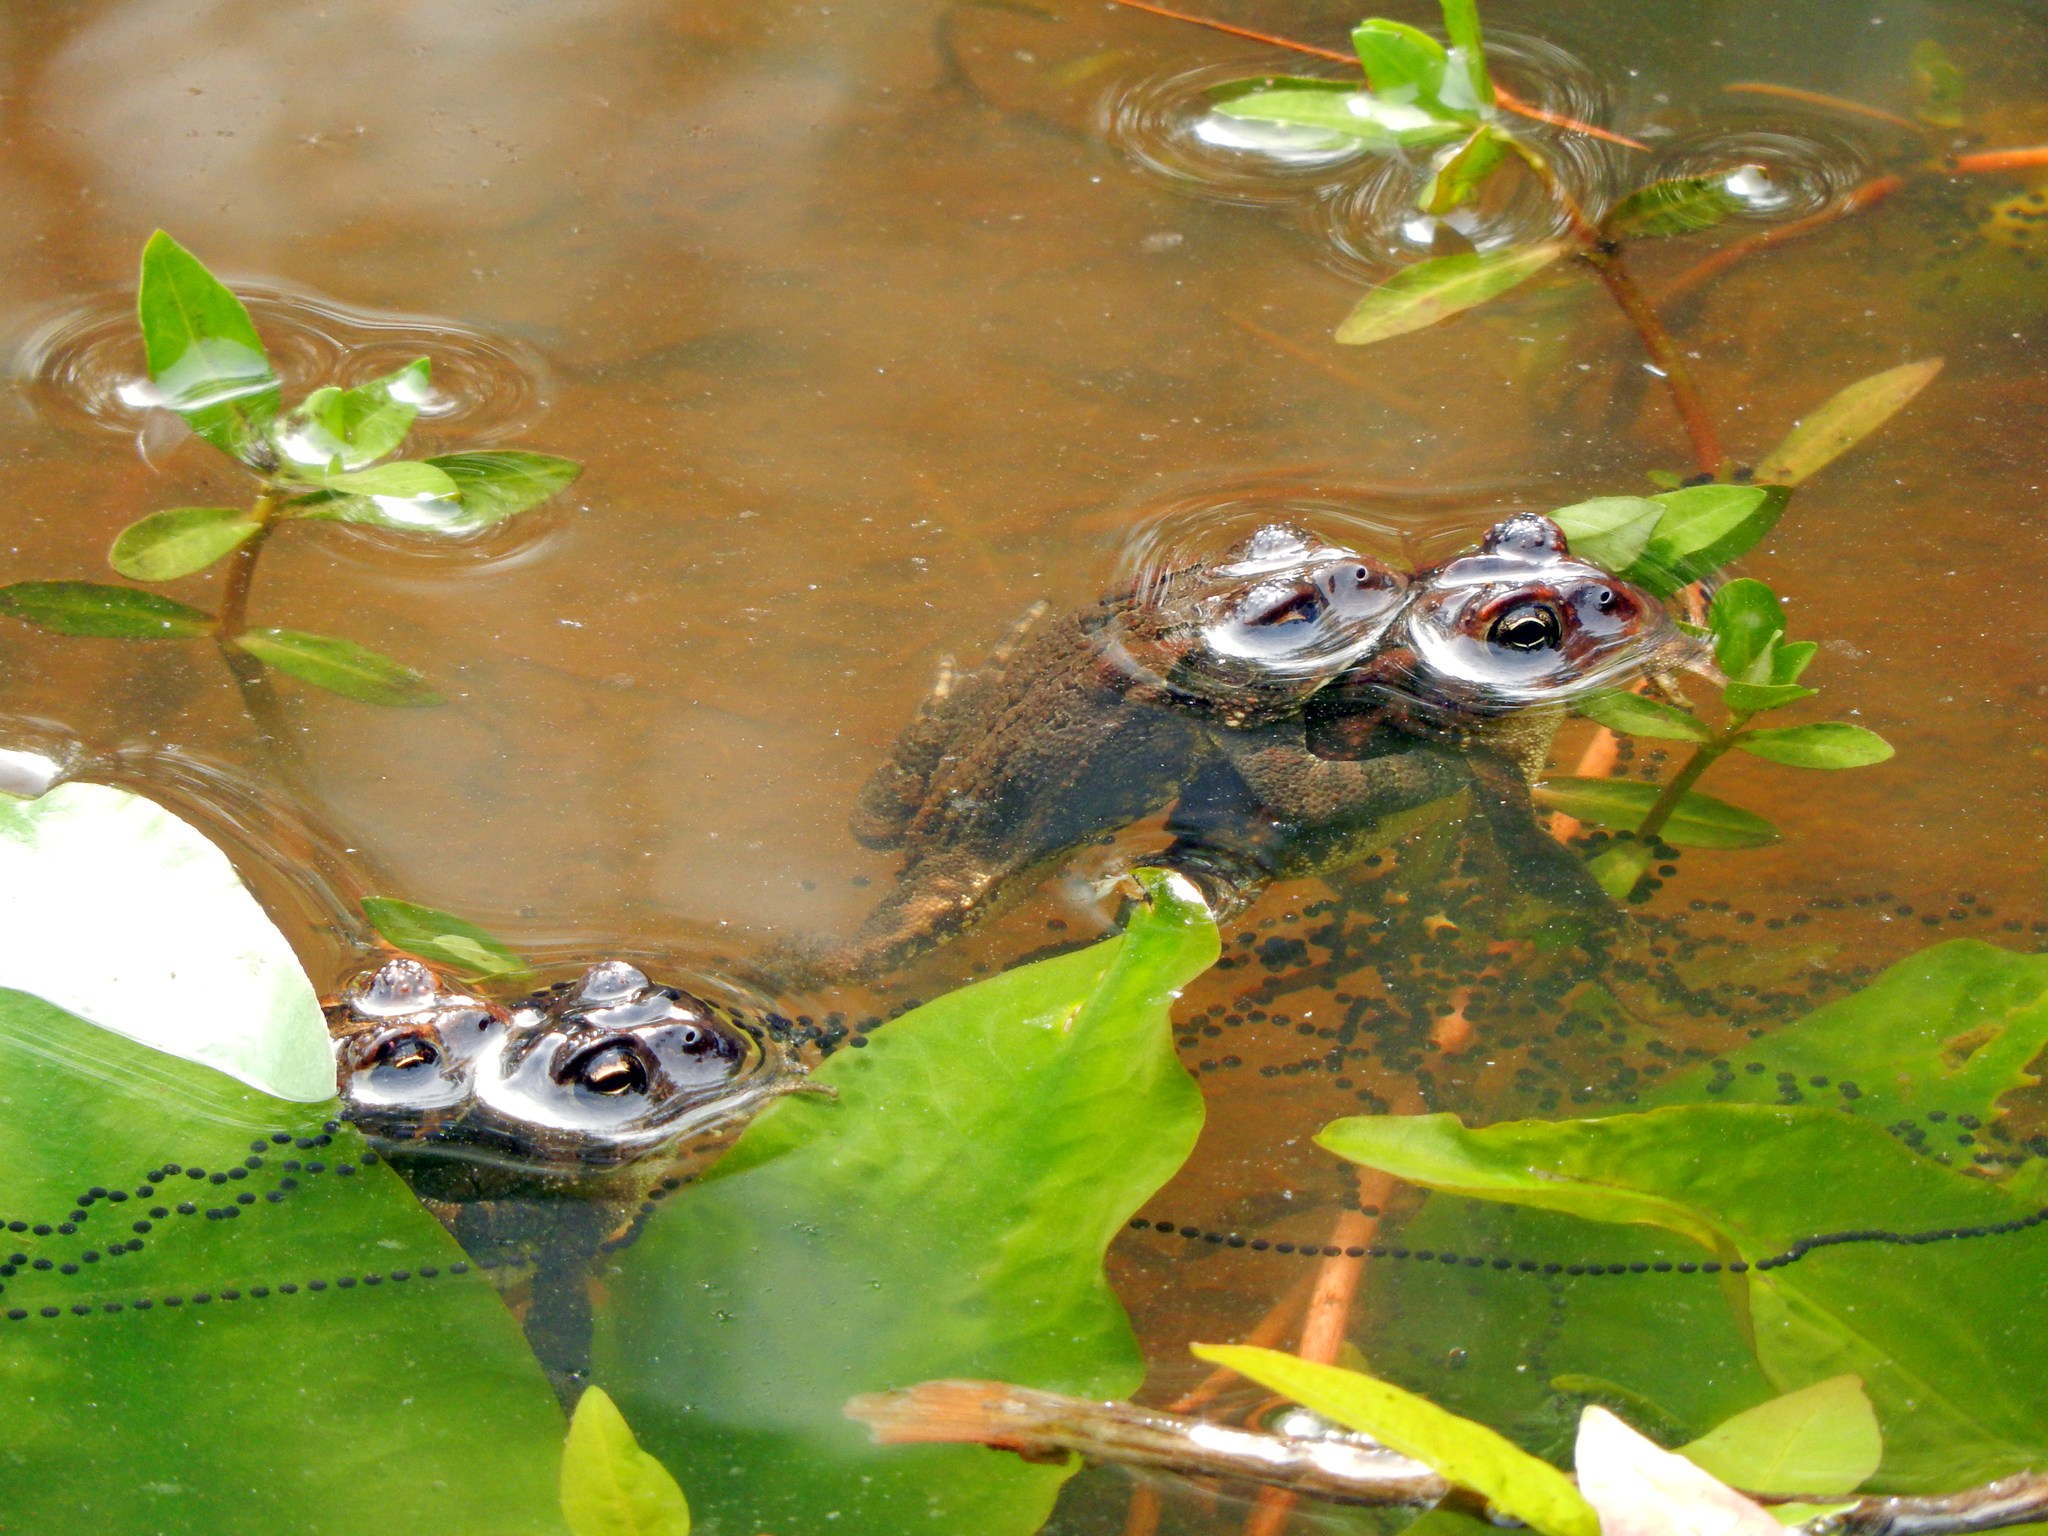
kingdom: Animalia
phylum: Chordata
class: Amphibia
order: Anura
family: Bufonidae
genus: Anaxyrus
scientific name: Anaxyrus terrestris
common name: Southern toad
